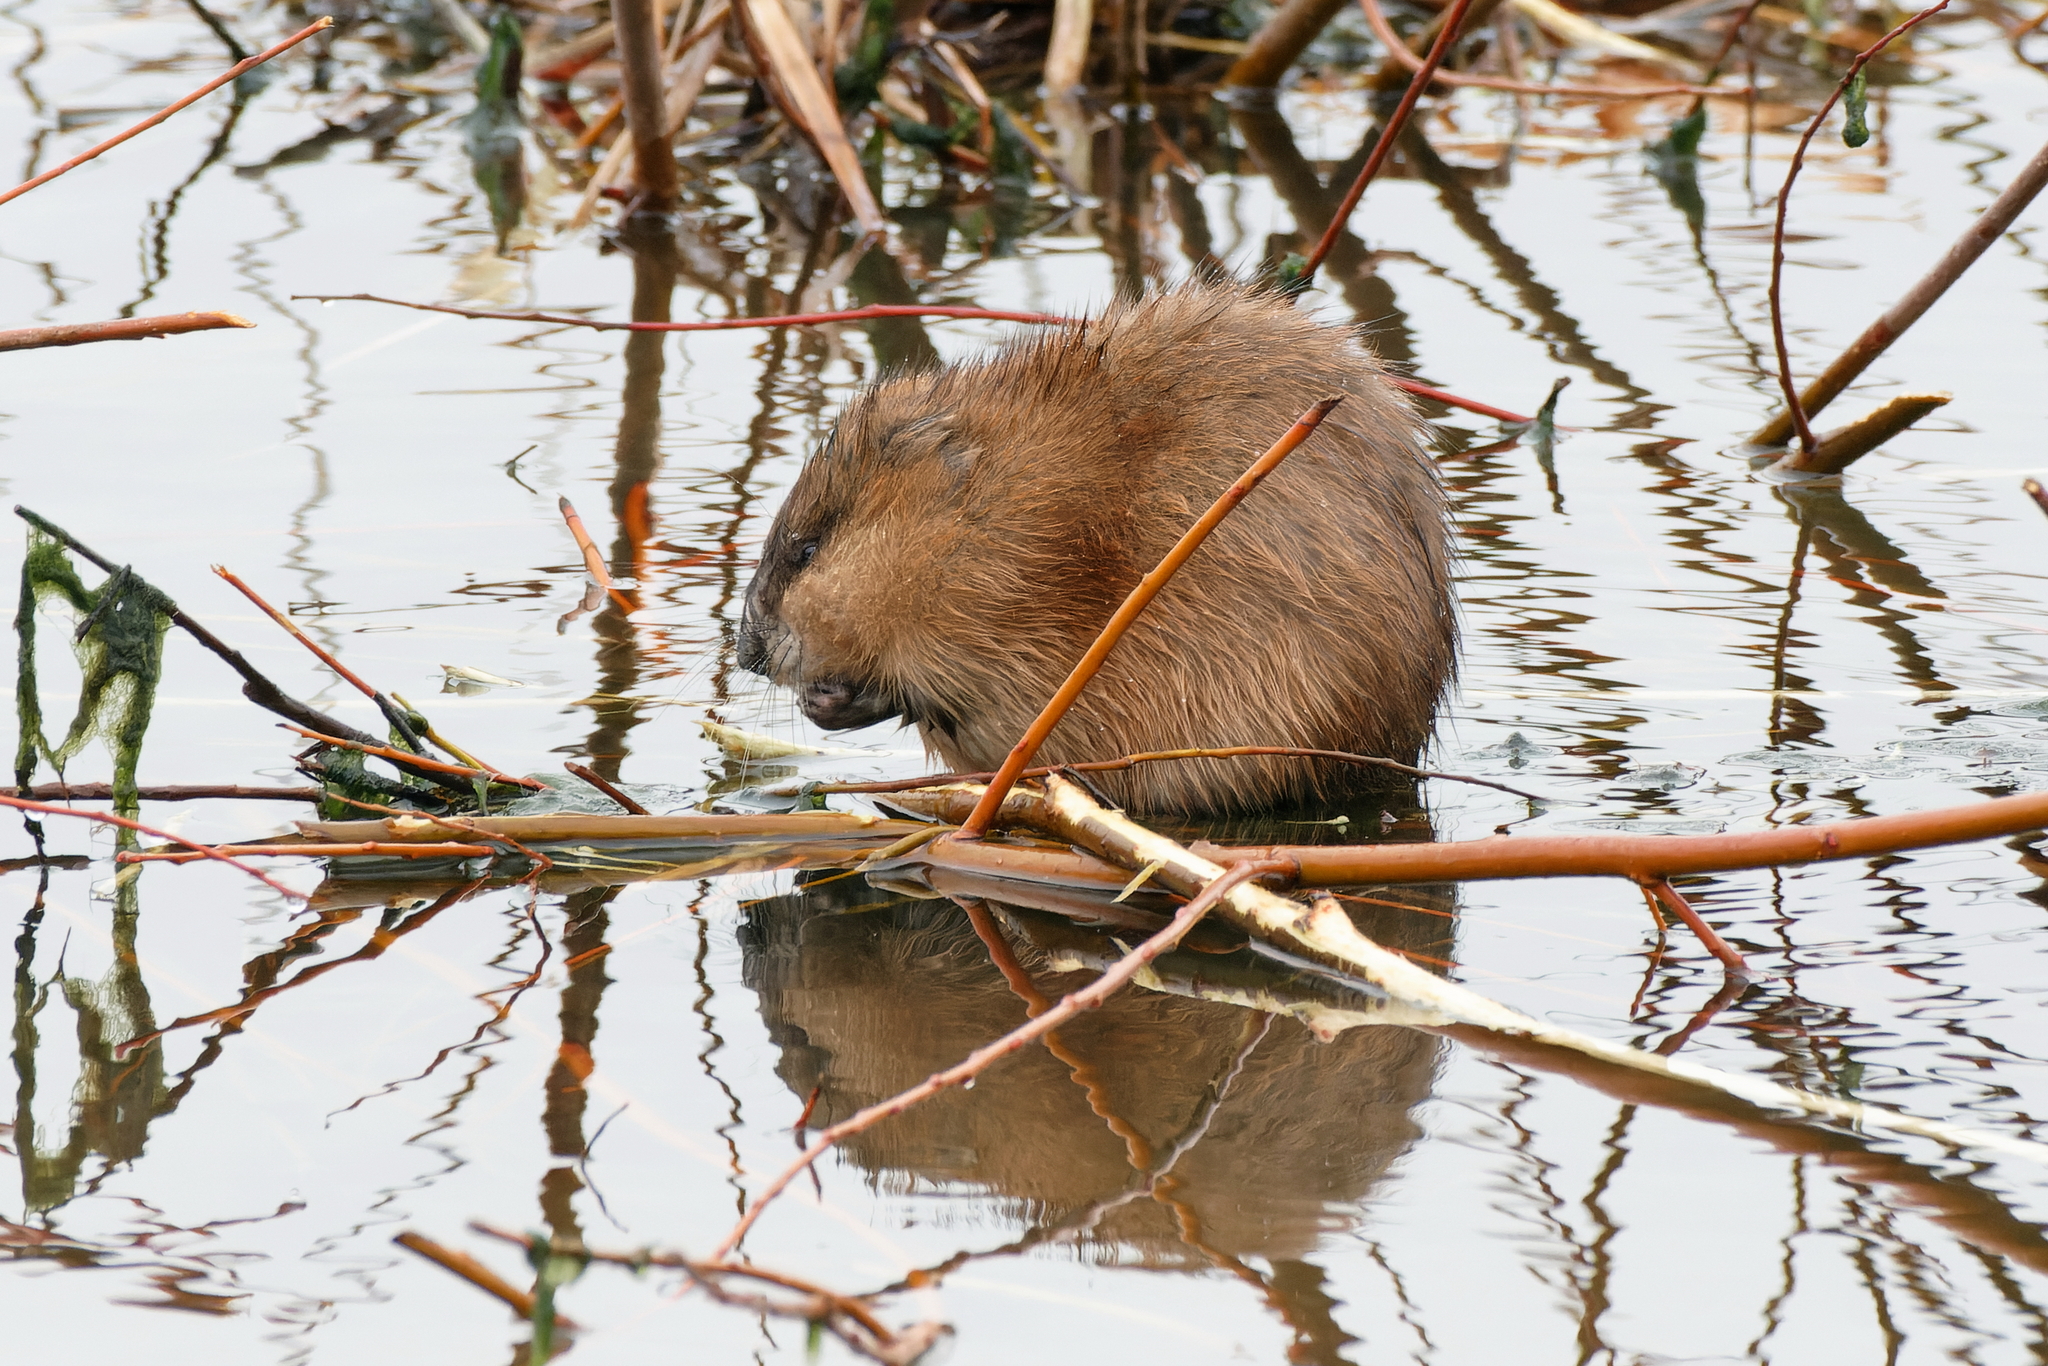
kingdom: Animalia
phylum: Chordata
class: Mammalia
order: Rodentia
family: Cricetidae
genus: Ondatra
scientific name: Ondatra zibethicus
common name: Muskrat
